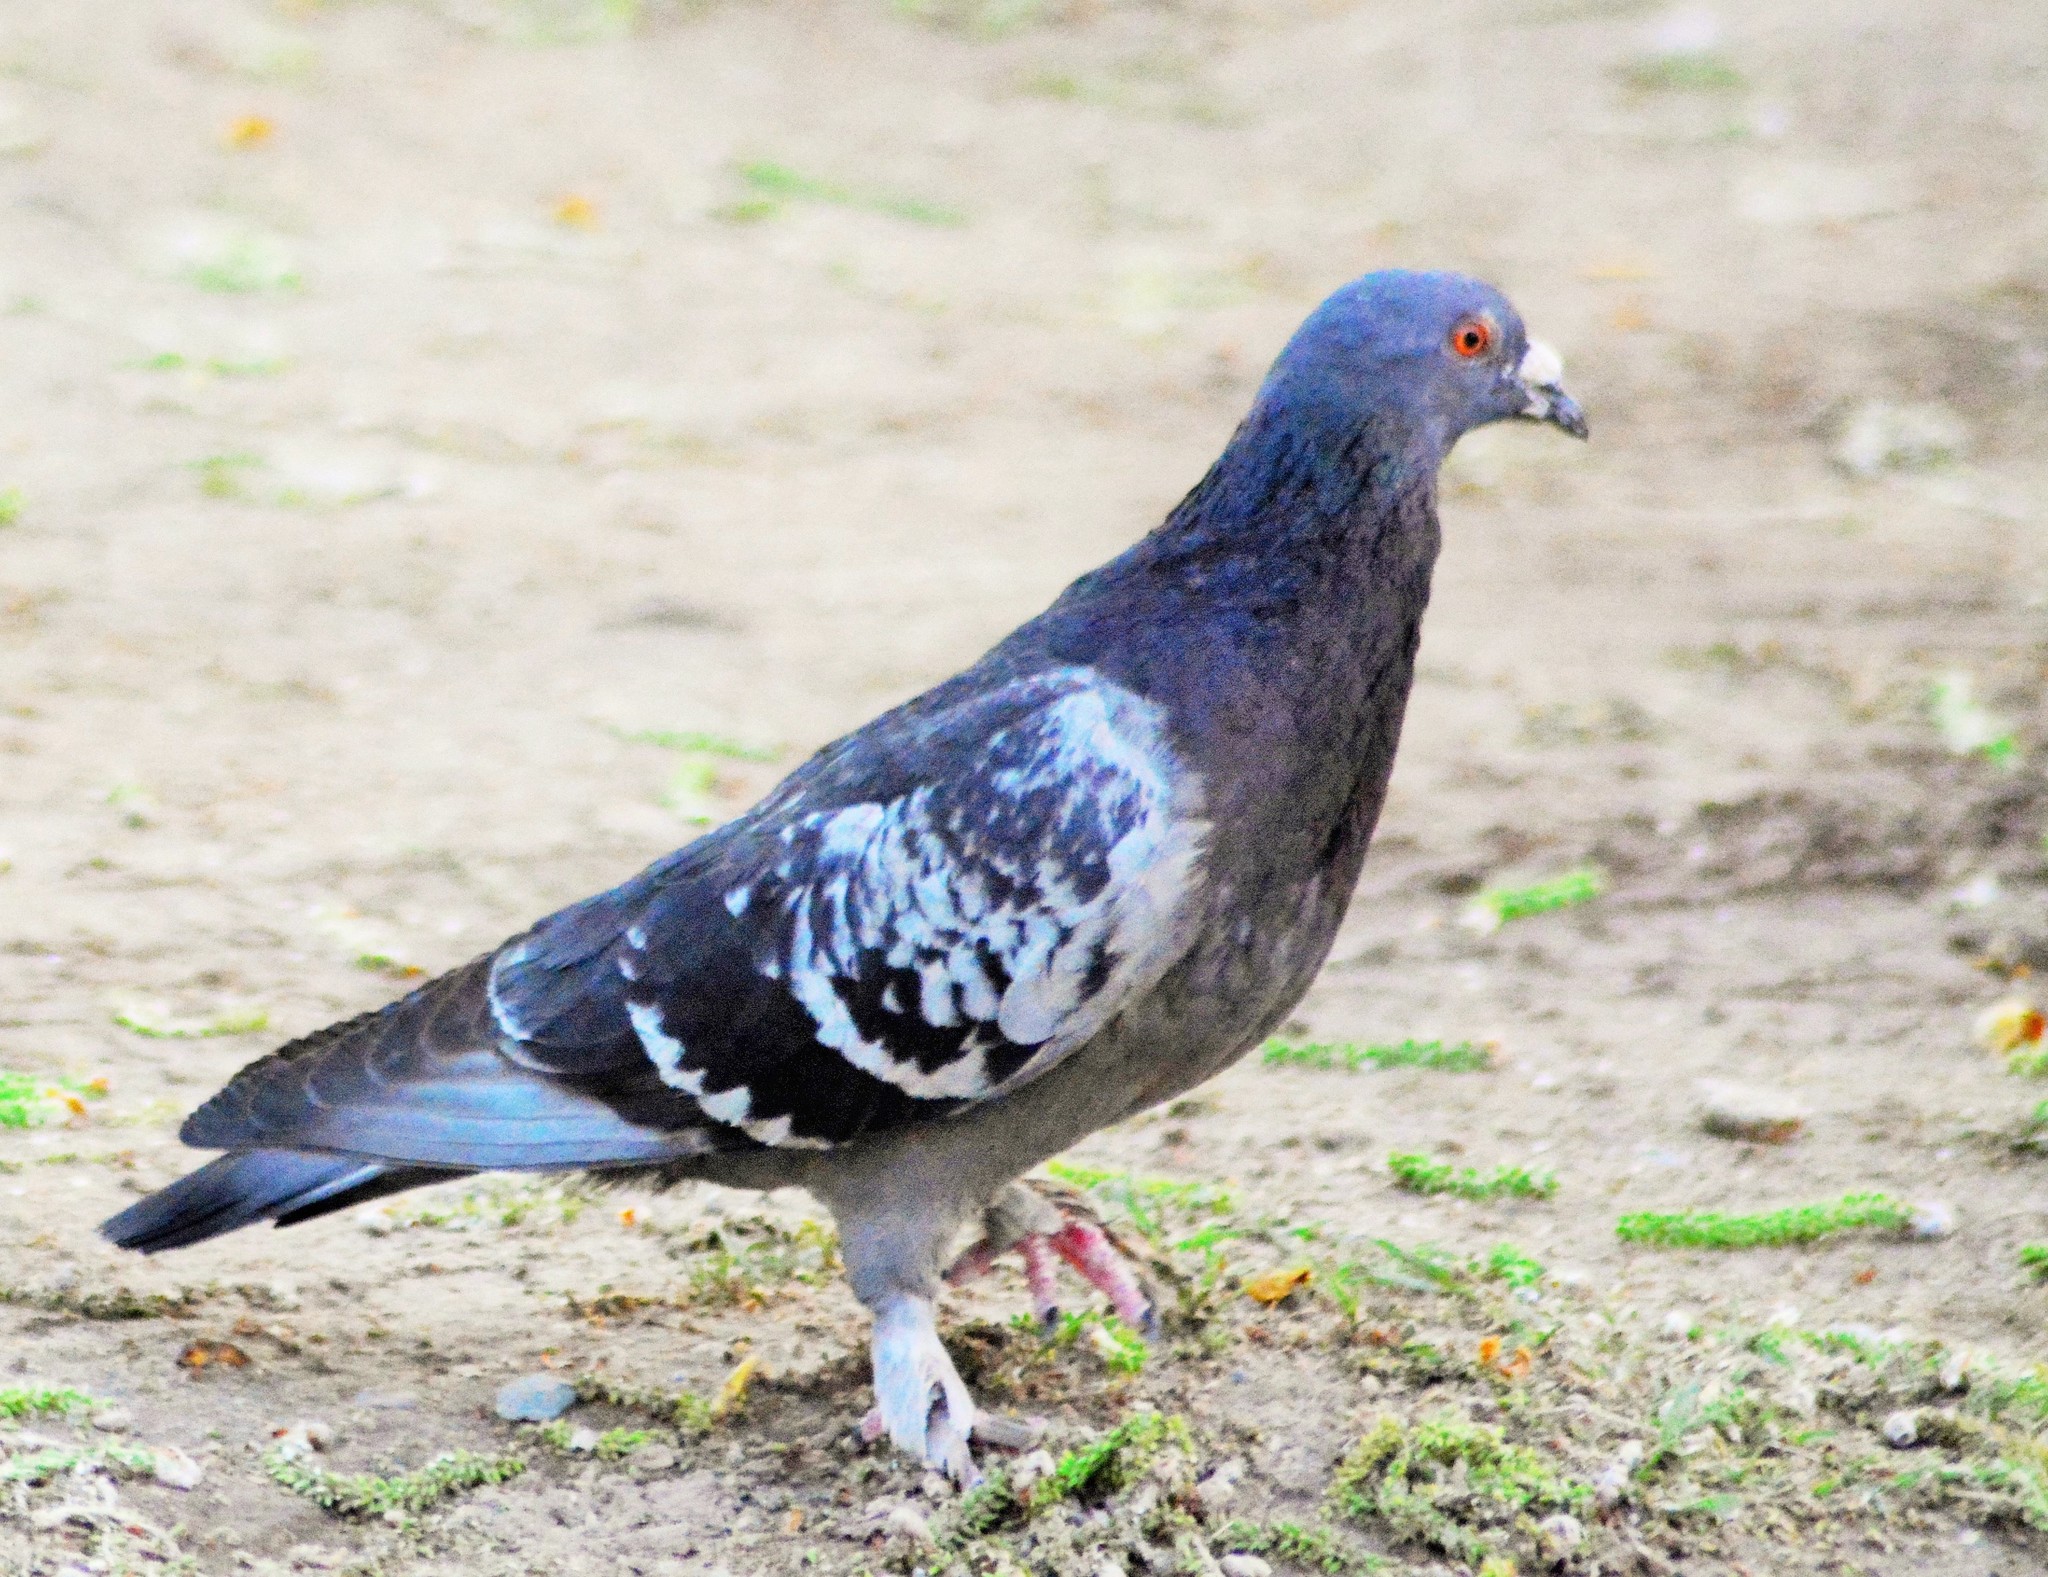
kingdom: Animalia
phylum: Chordata
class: Aves
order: Columbiformes
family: Columbidae
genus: Columba
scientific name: Columba livia
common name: Rock pigeon
